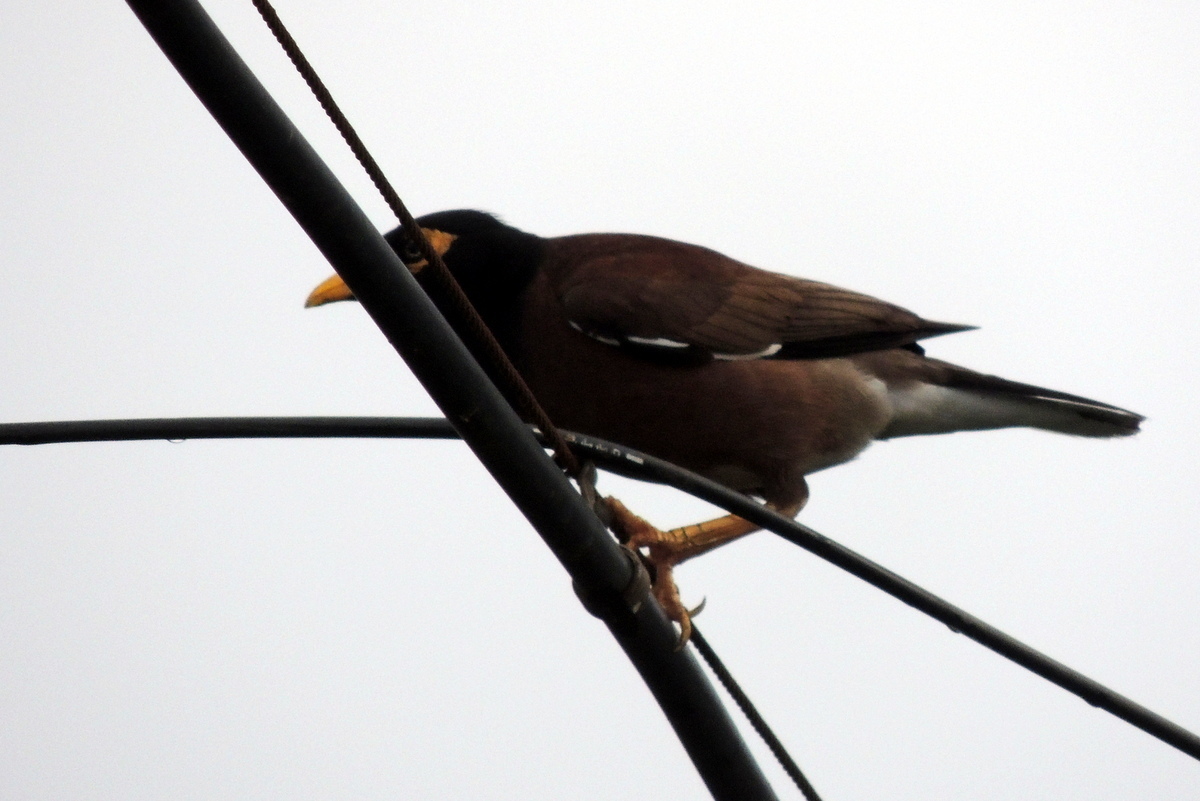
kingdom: Animalia
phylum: Chordata
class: Aves
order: Passeriformes
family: Sturnidae
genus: Acridotheres
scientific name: Acridotheres tristis
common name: Common myna
